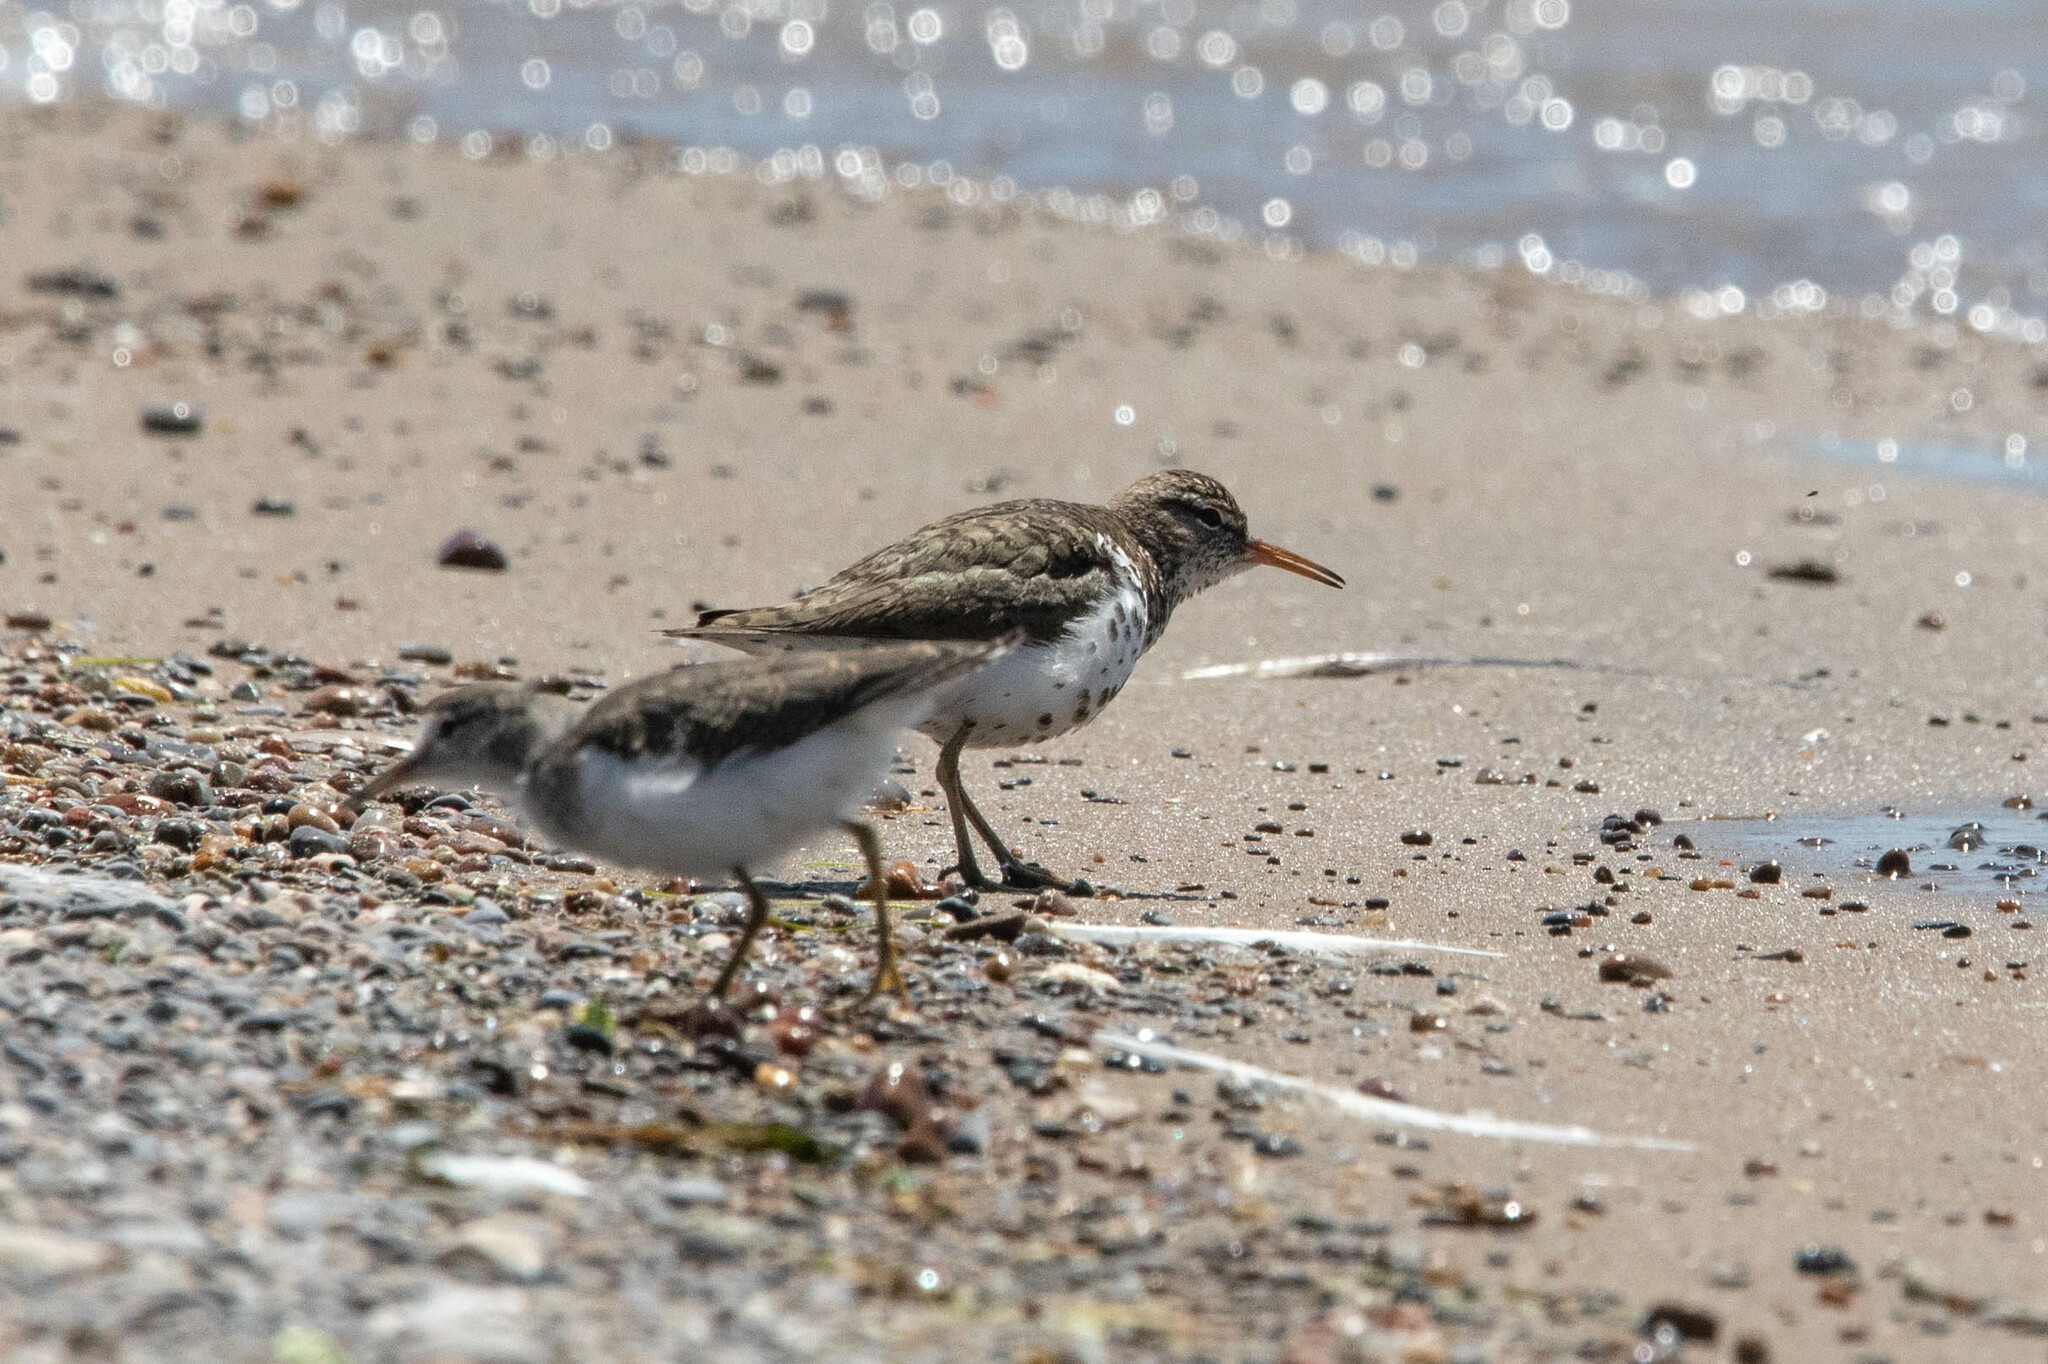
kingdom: Animalia
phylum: Chordata
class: Aves
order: Charadriiformes
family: Scolopacidae
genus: Actitis
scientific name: Actitis macularius
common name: Spotted sandpiper
